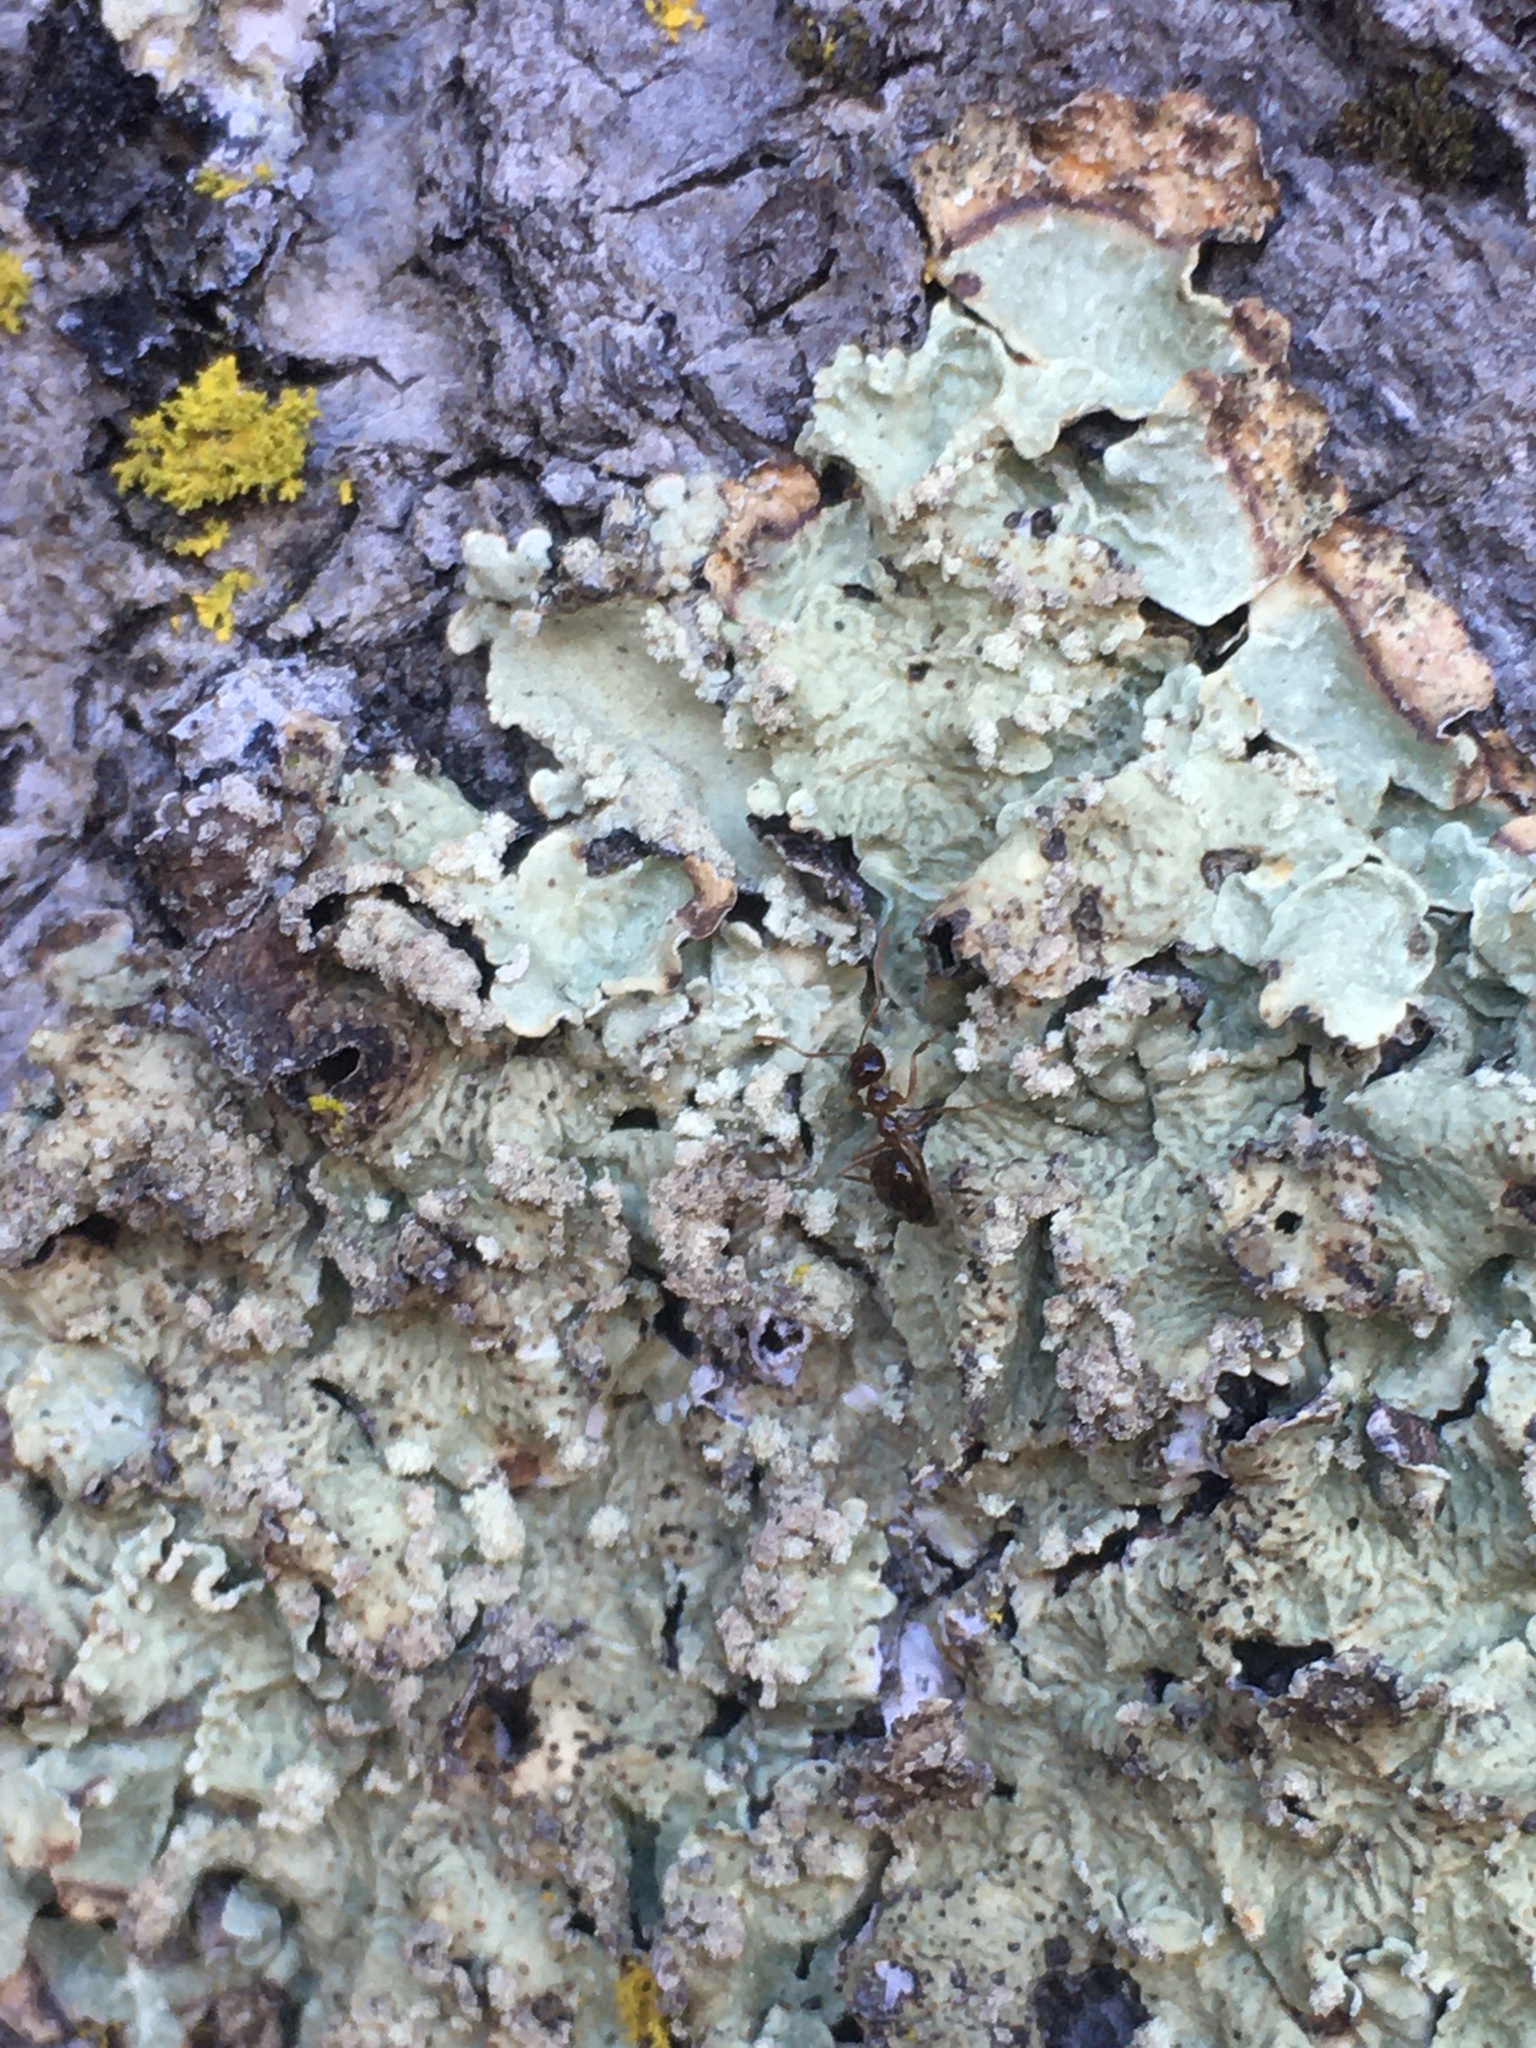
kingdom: Animalia
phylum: Arthropoda
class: Insecta
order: Hymenoptera
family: Formicidae
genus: Prenolepis
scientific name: Prenolepis imparis
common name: Small honey ant
